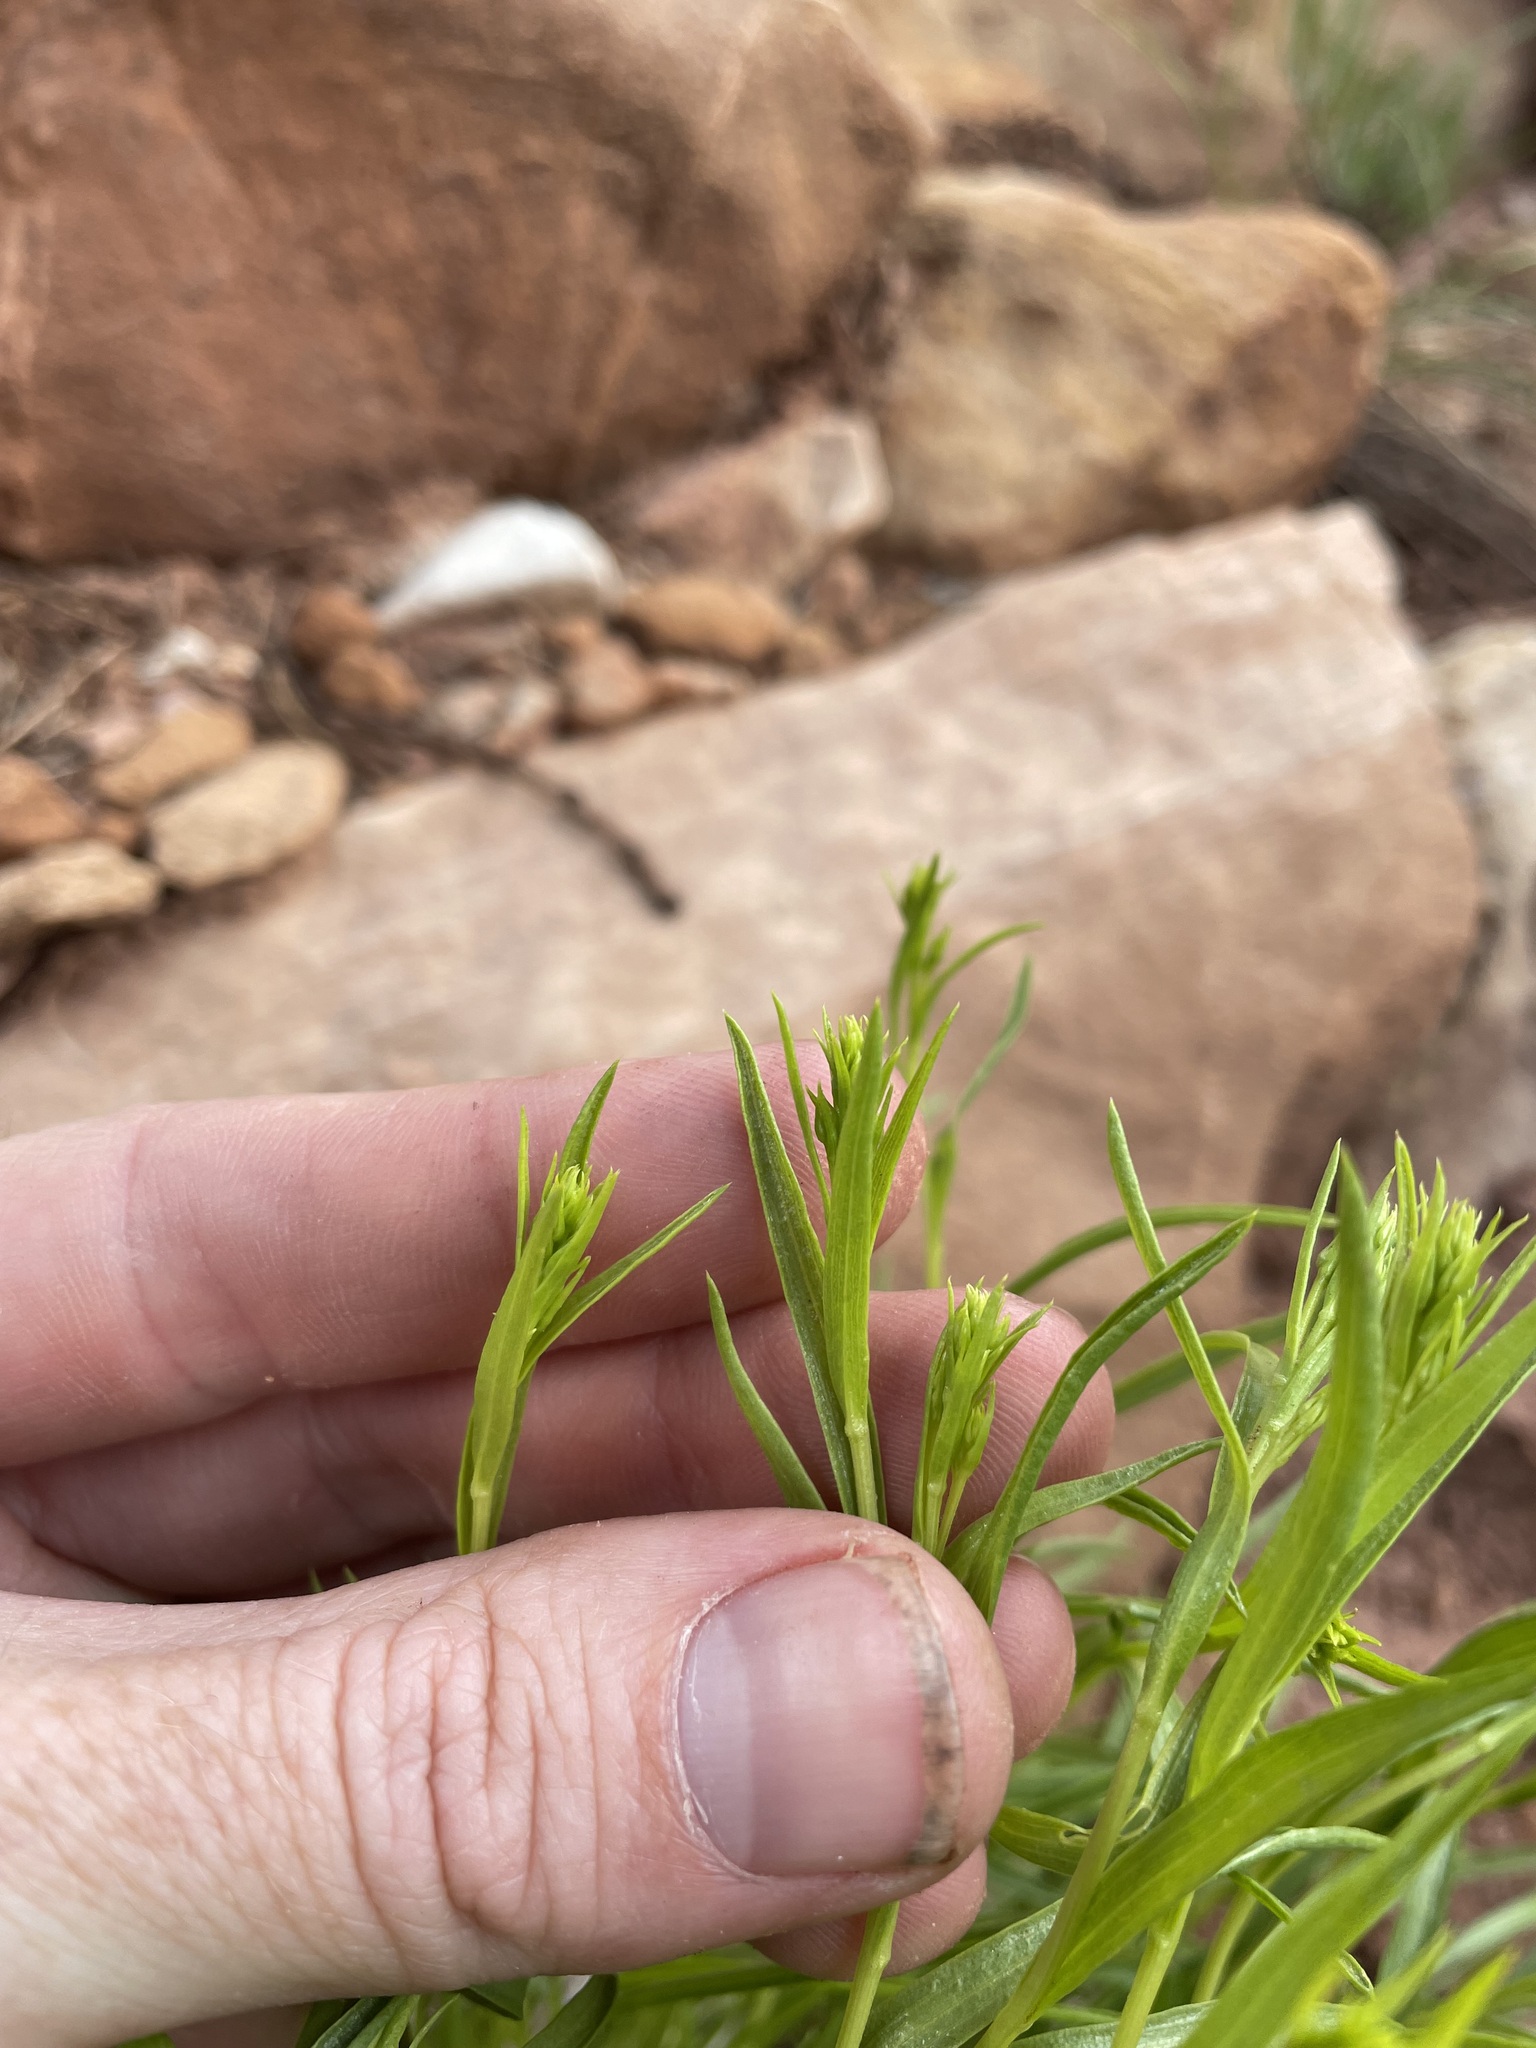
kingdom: Plantae
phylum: Tracheophyta
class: Magnoliopsida
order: Asterales
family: Asteraceae
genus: Petradoria
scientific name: Petradoria pumila
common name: Rock-goldenrod
